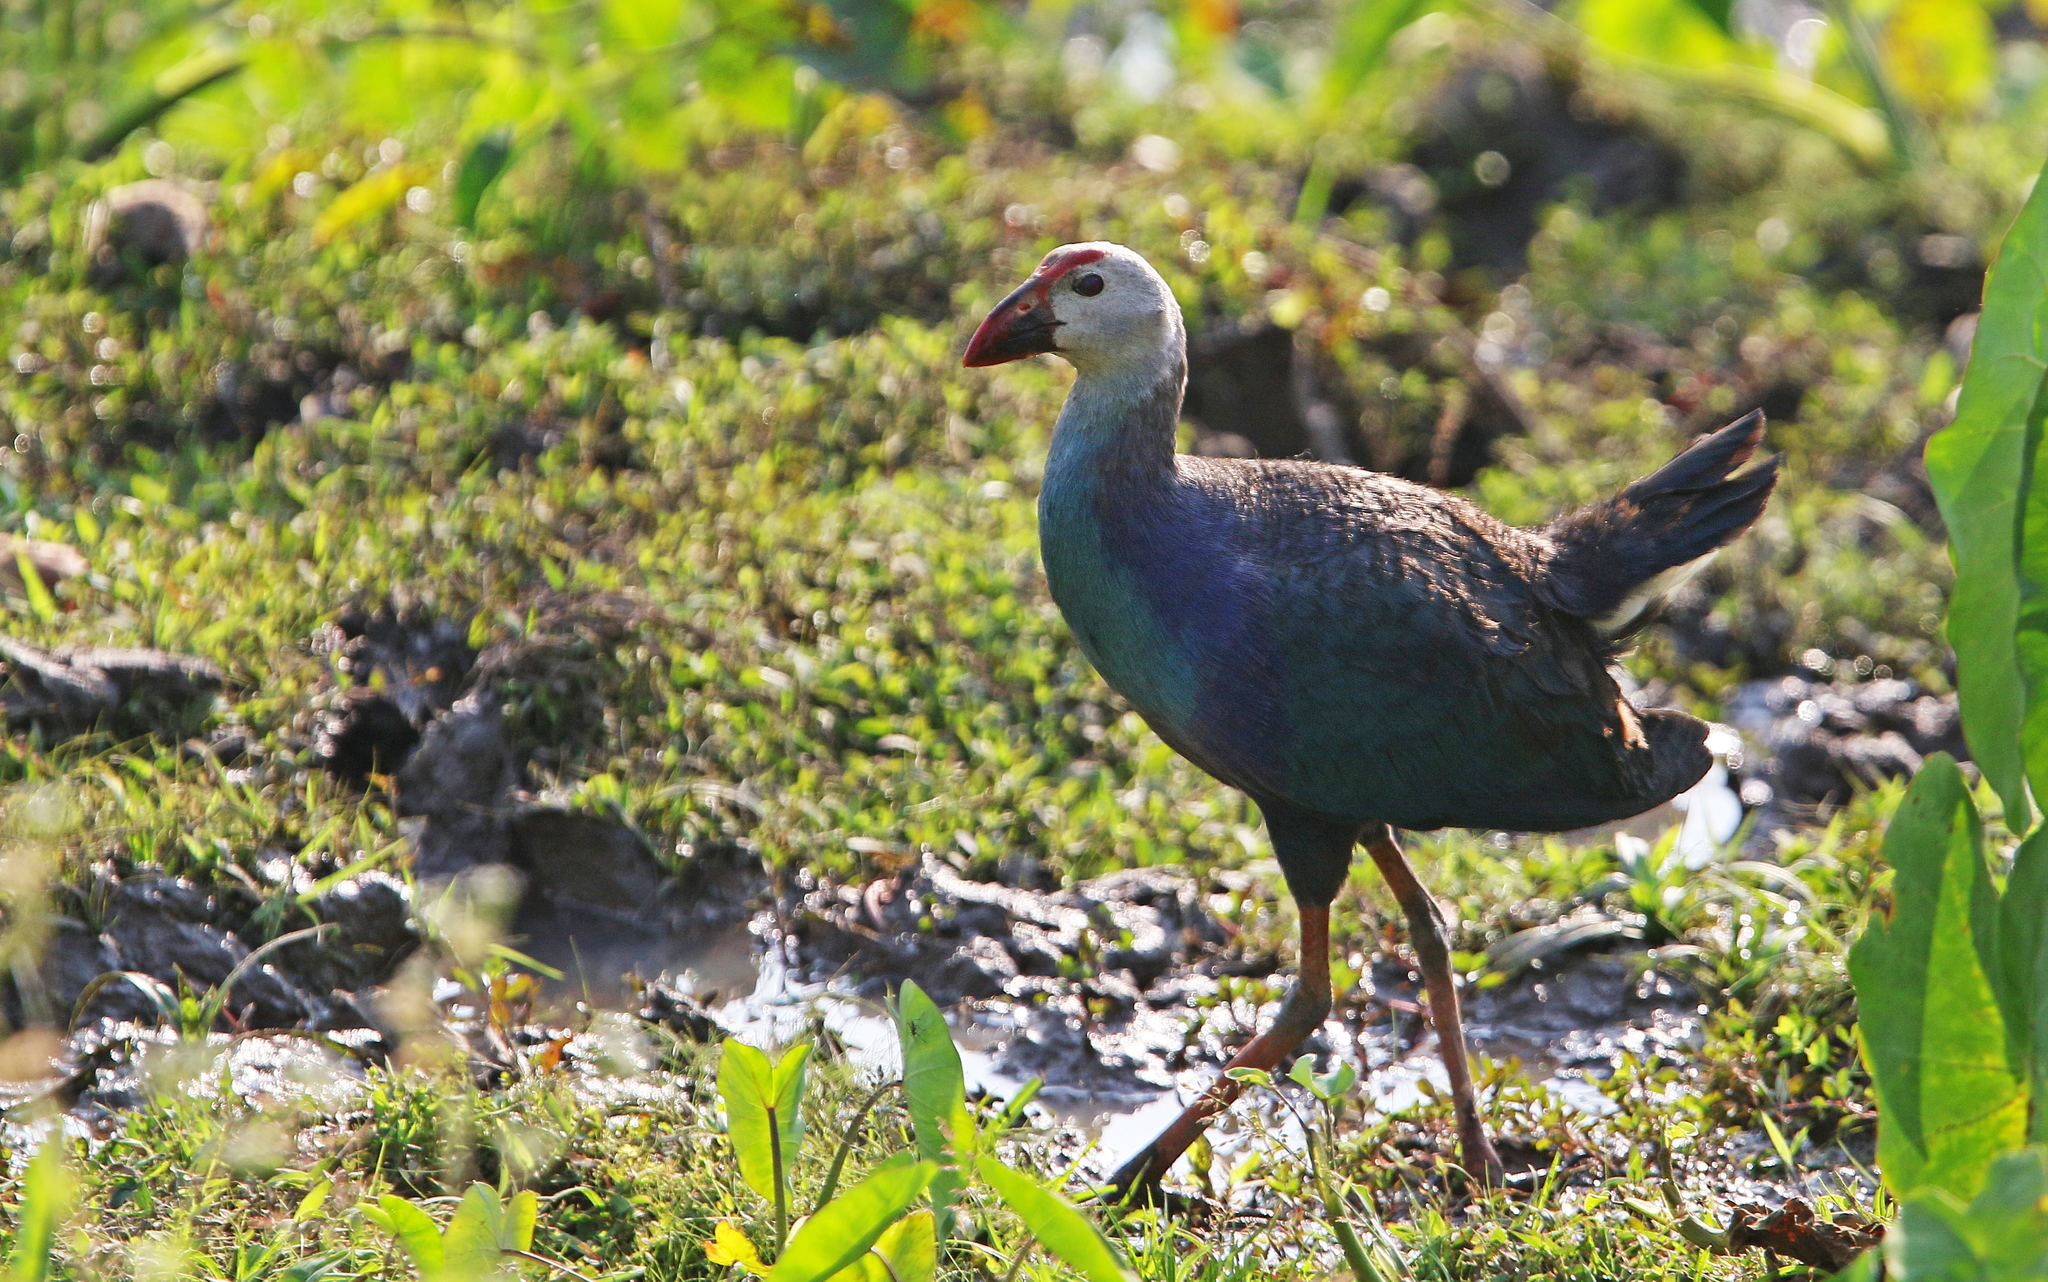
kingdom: Animalia
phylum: Chordata
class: Aves
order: Gruiformes
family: Rallidae
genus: Porphyrio
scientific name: Porphyrio porphyrio
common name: Purple swamphen
